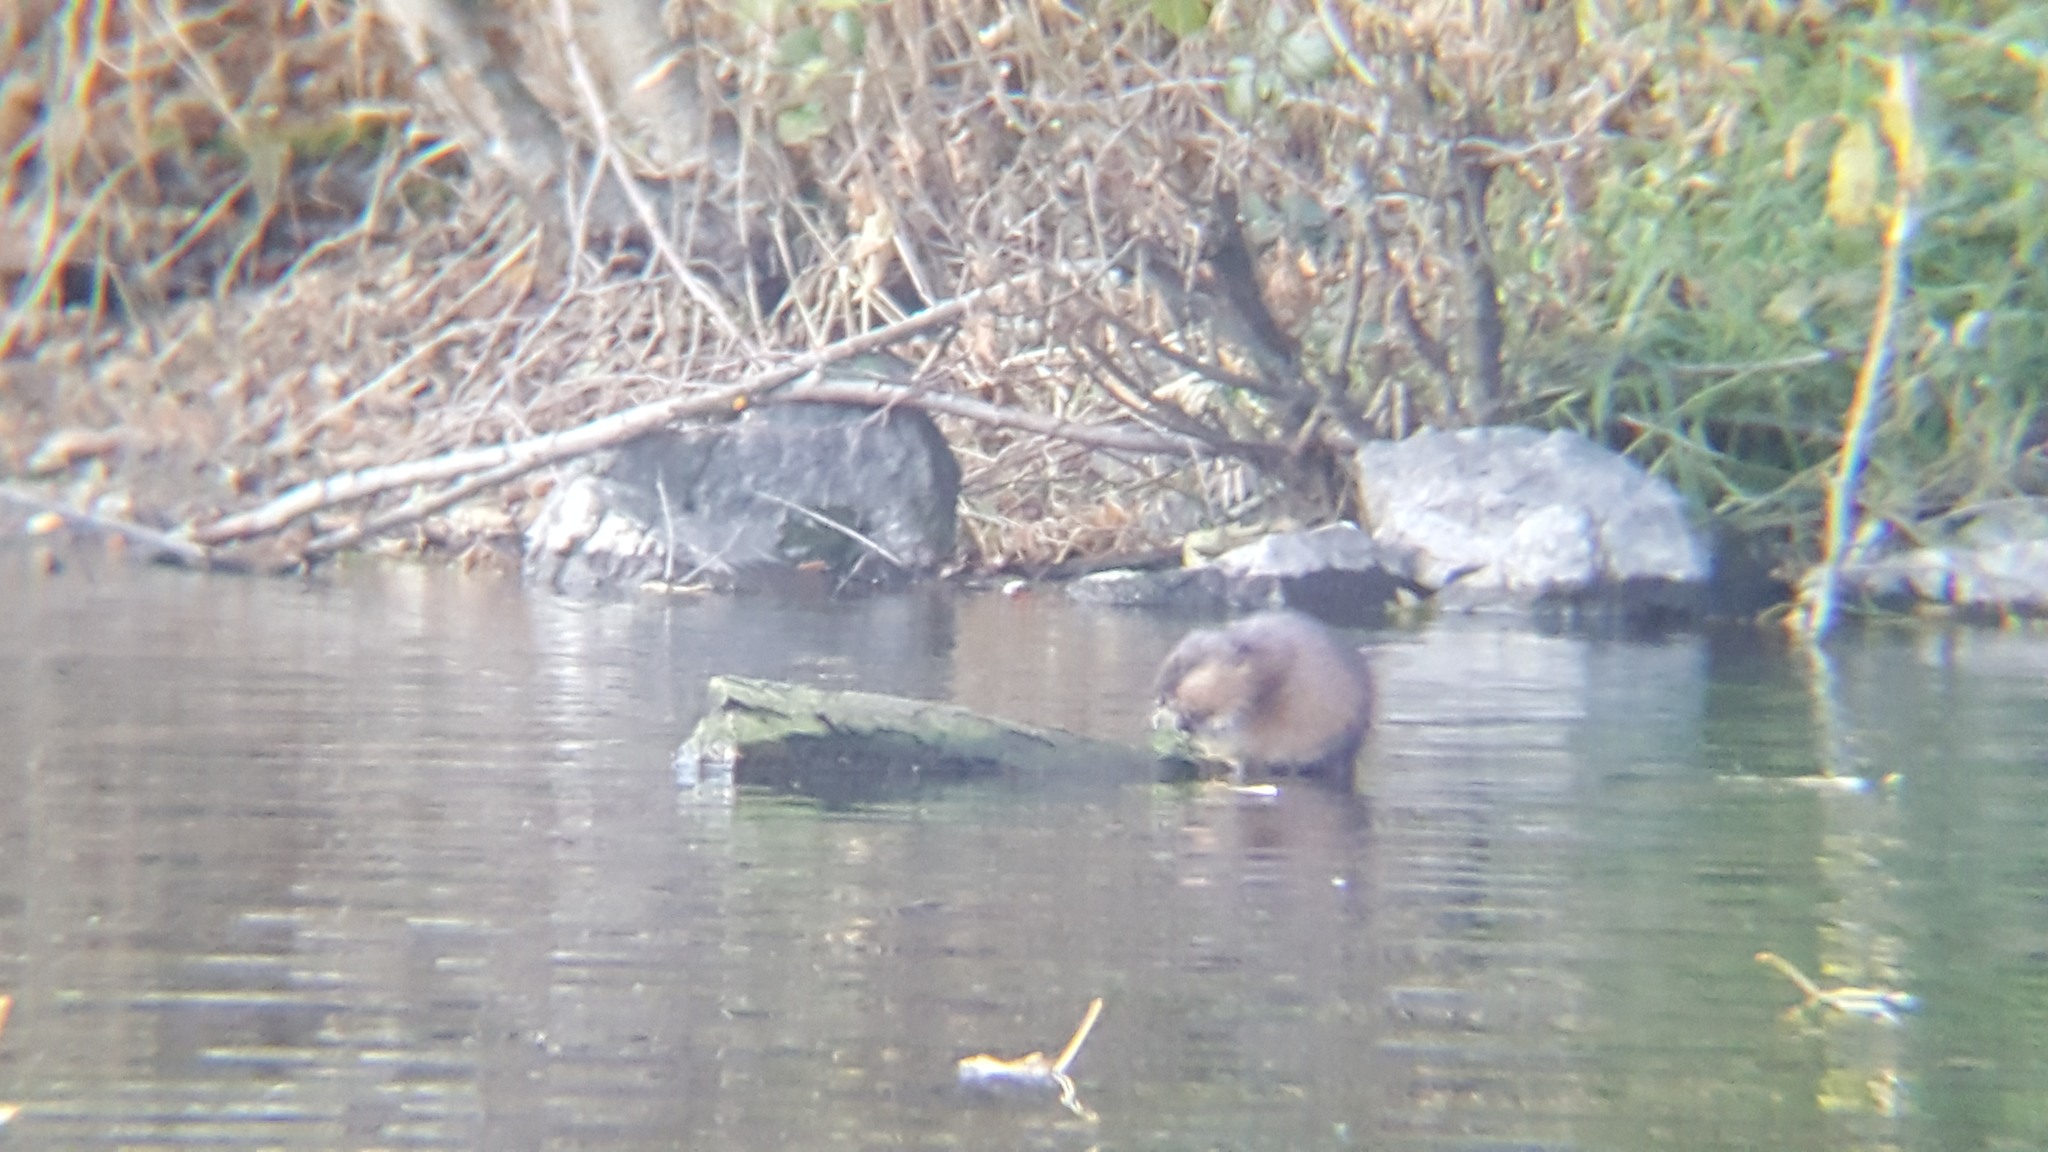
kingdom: Animalia
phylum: Chordata
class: Mammalia
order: Rodentia
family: Cricetidae
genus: Ondatra
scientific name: Ondatra zibethicus
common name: Muskrat
